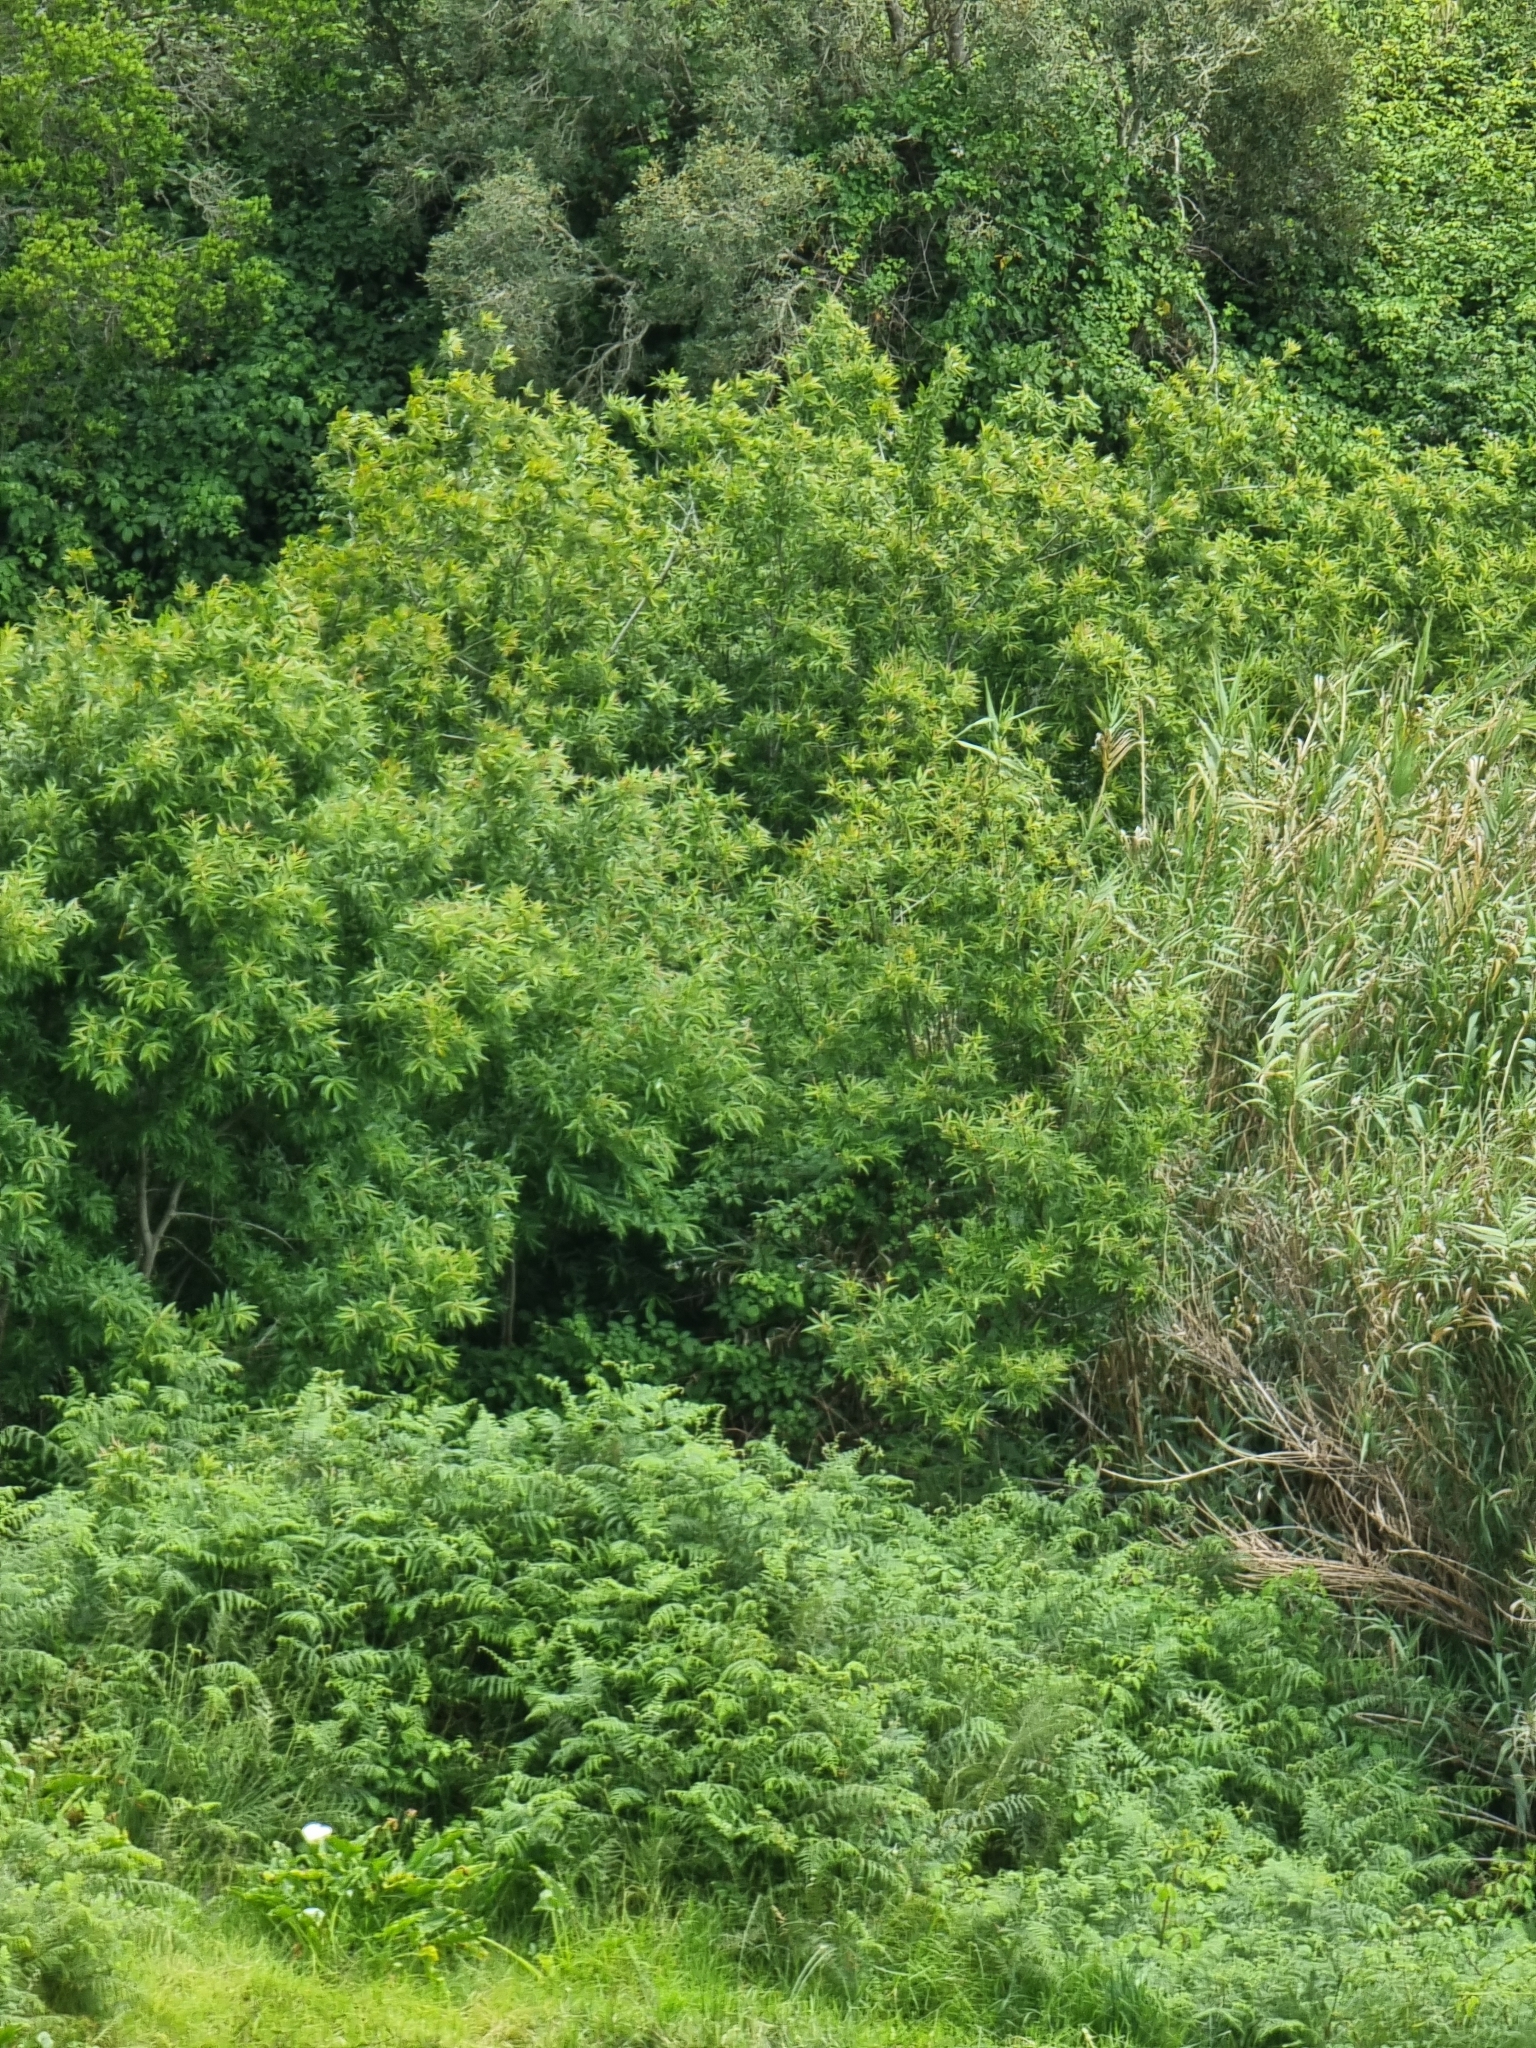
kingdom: Plantae
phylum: Tracheophyta
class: Magnoliopsida
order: Malpighiales
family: Salicaceae
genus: Salix
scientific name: Salix canariensis
